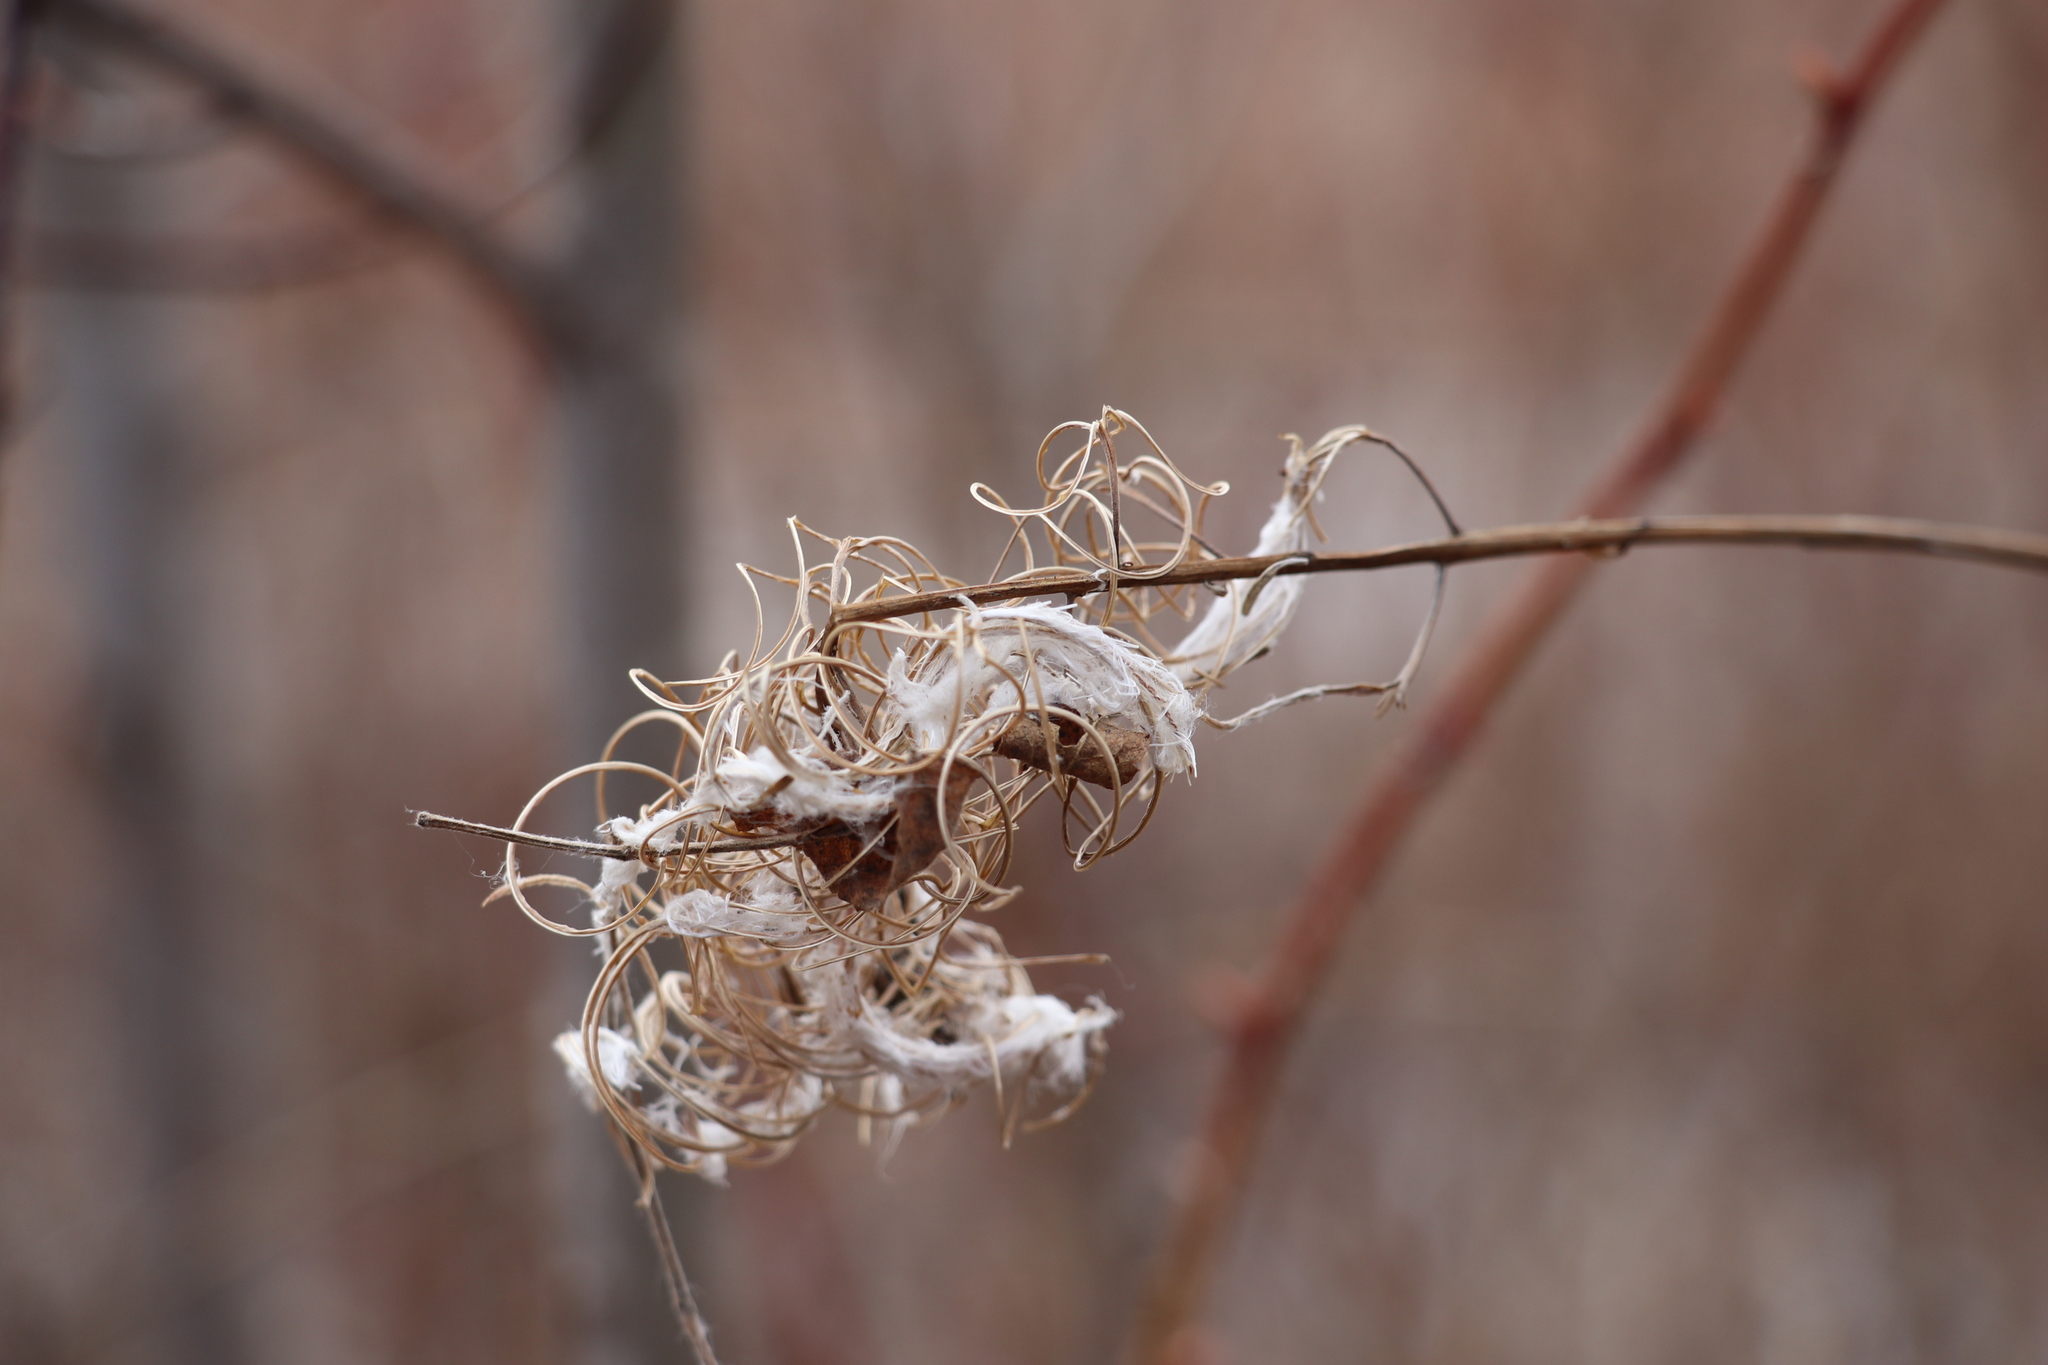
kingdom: Plantae
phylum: Tracheophyta
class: Magnoliopsida
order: Myrtales
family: Onagraceae
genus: Chamaenerion
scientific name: Chamaenerion angustifolium
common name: Fireweed
